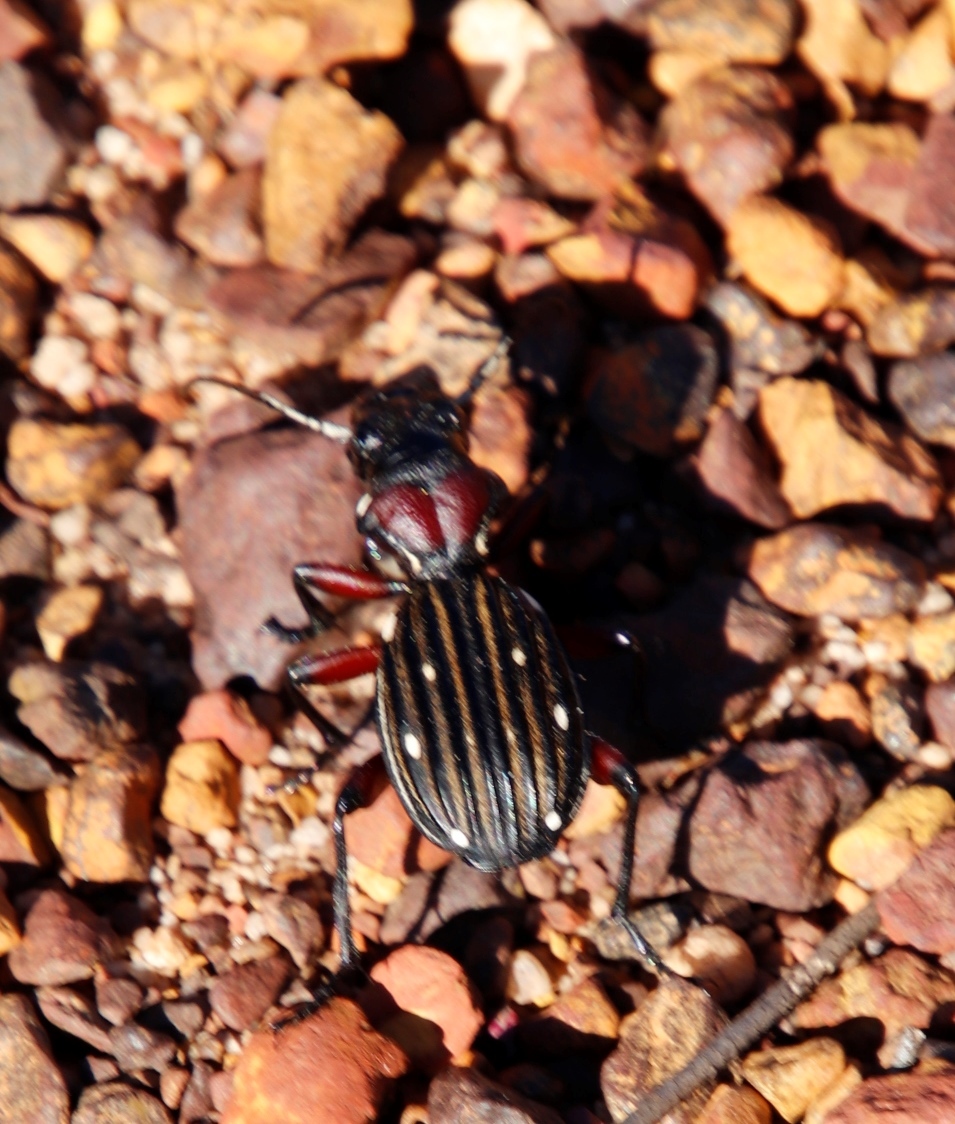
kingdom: Animalia
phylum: Arthropoda
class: Insecta
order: Coleoptera
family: Carabidae
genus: Anthia
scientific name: Anthia decemguttata
